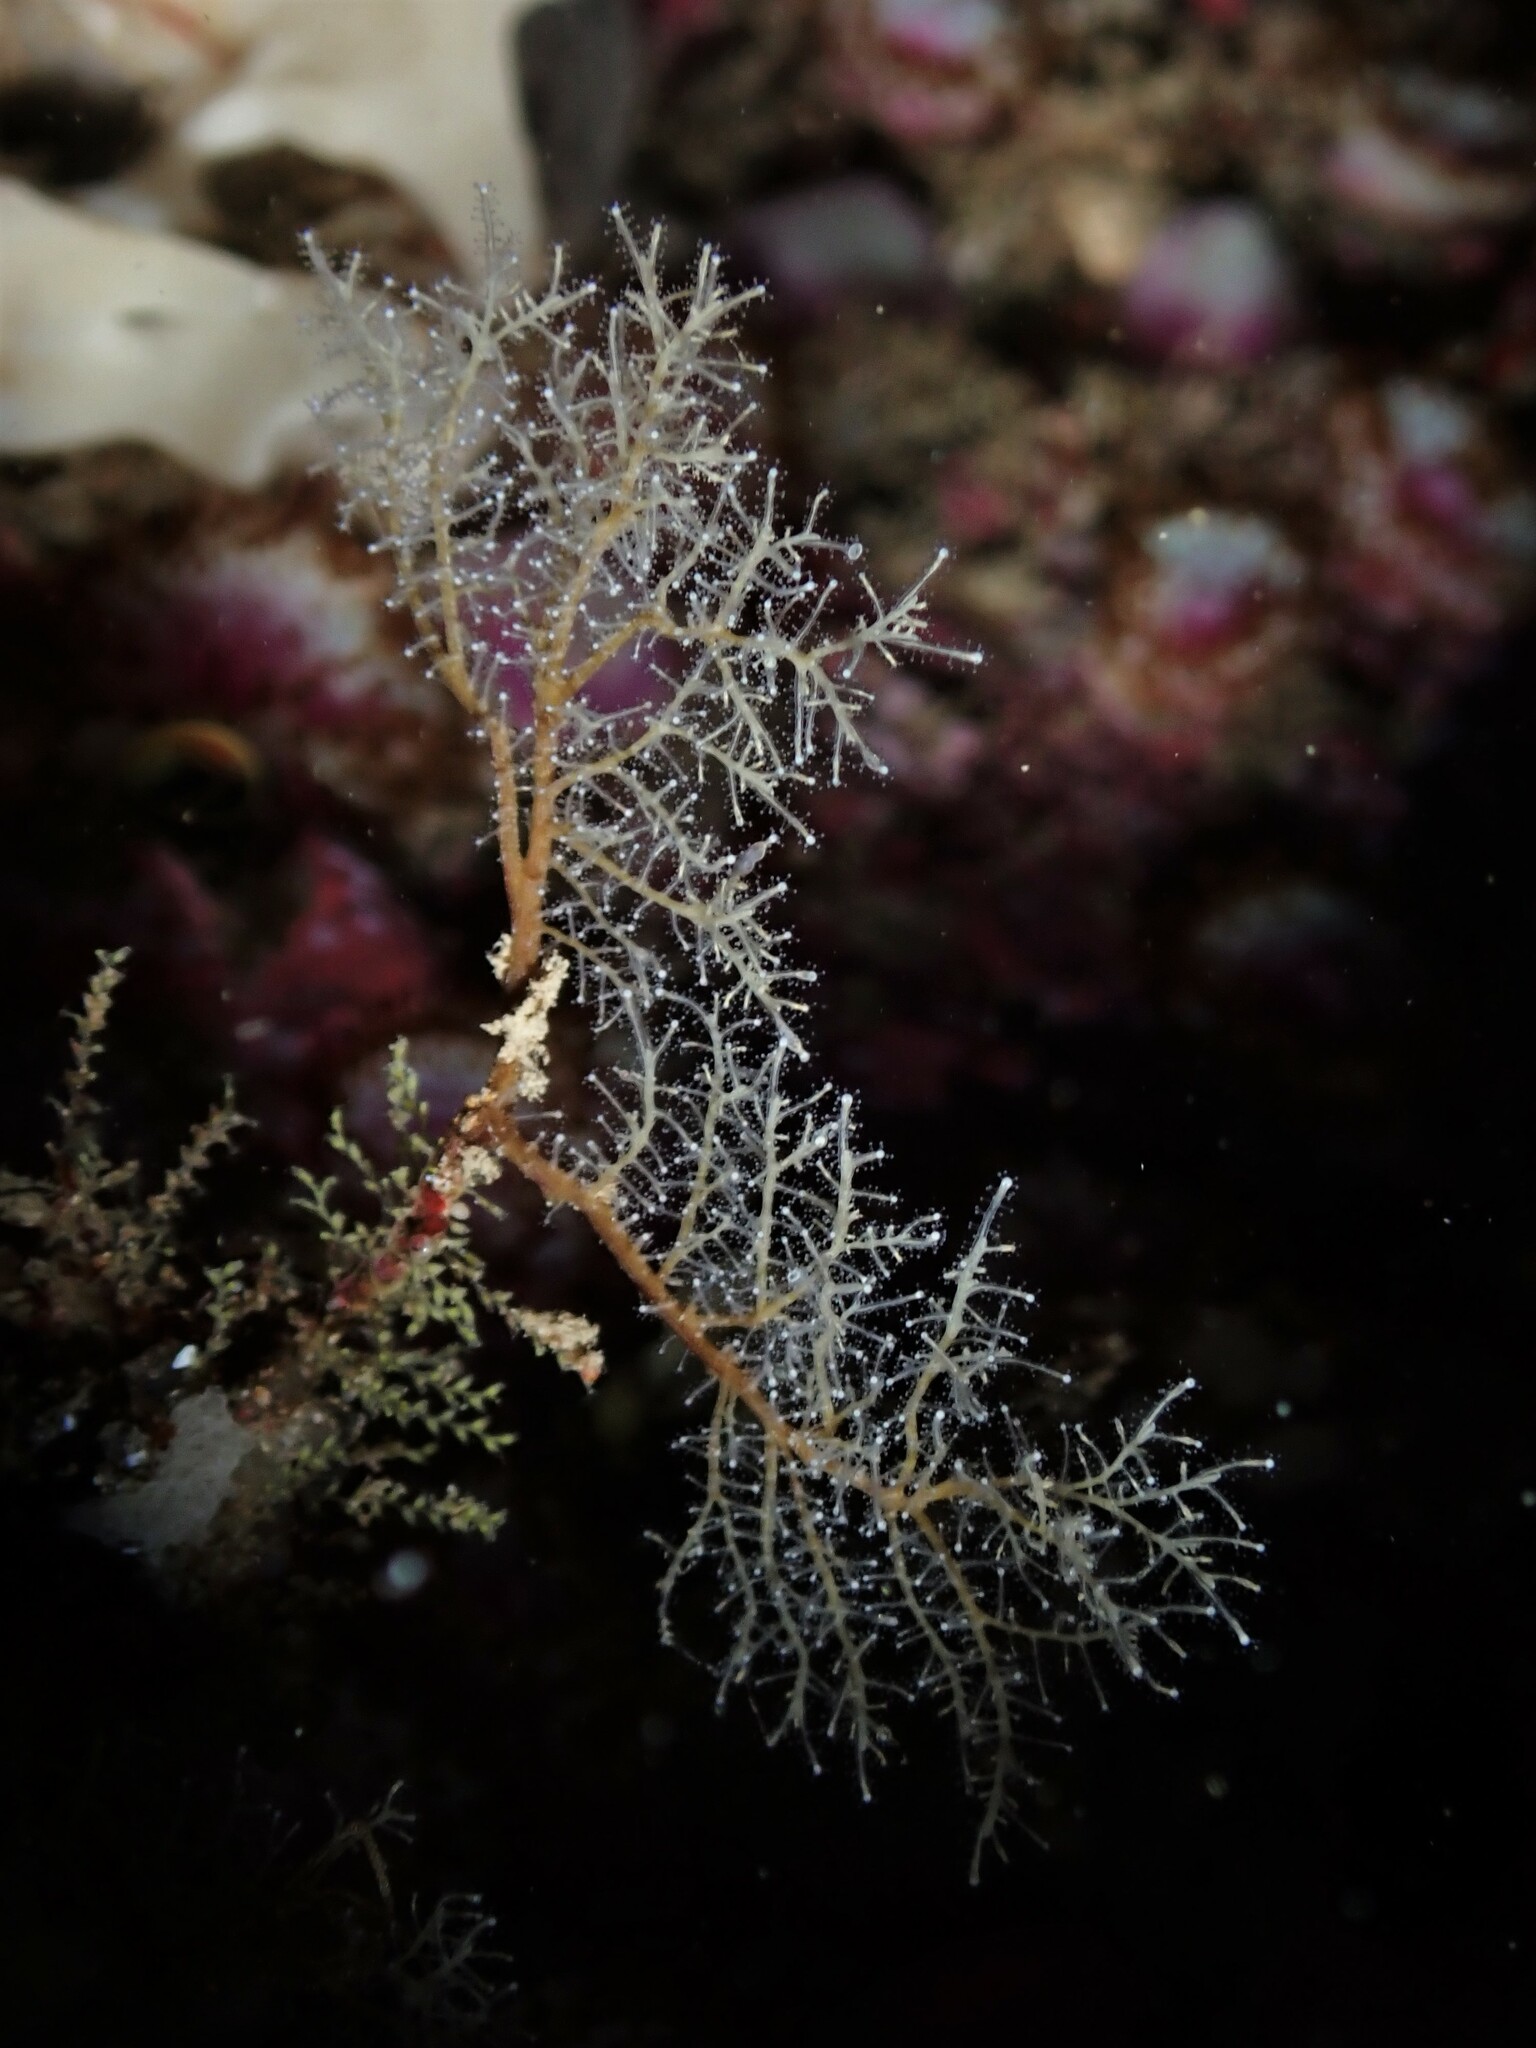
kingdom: Animalia
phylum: Cnidaria
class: Hydrozoa
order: Anthoathecata
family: Solanderiidae
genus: Solanderia
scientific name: Solanderia ericopsis
